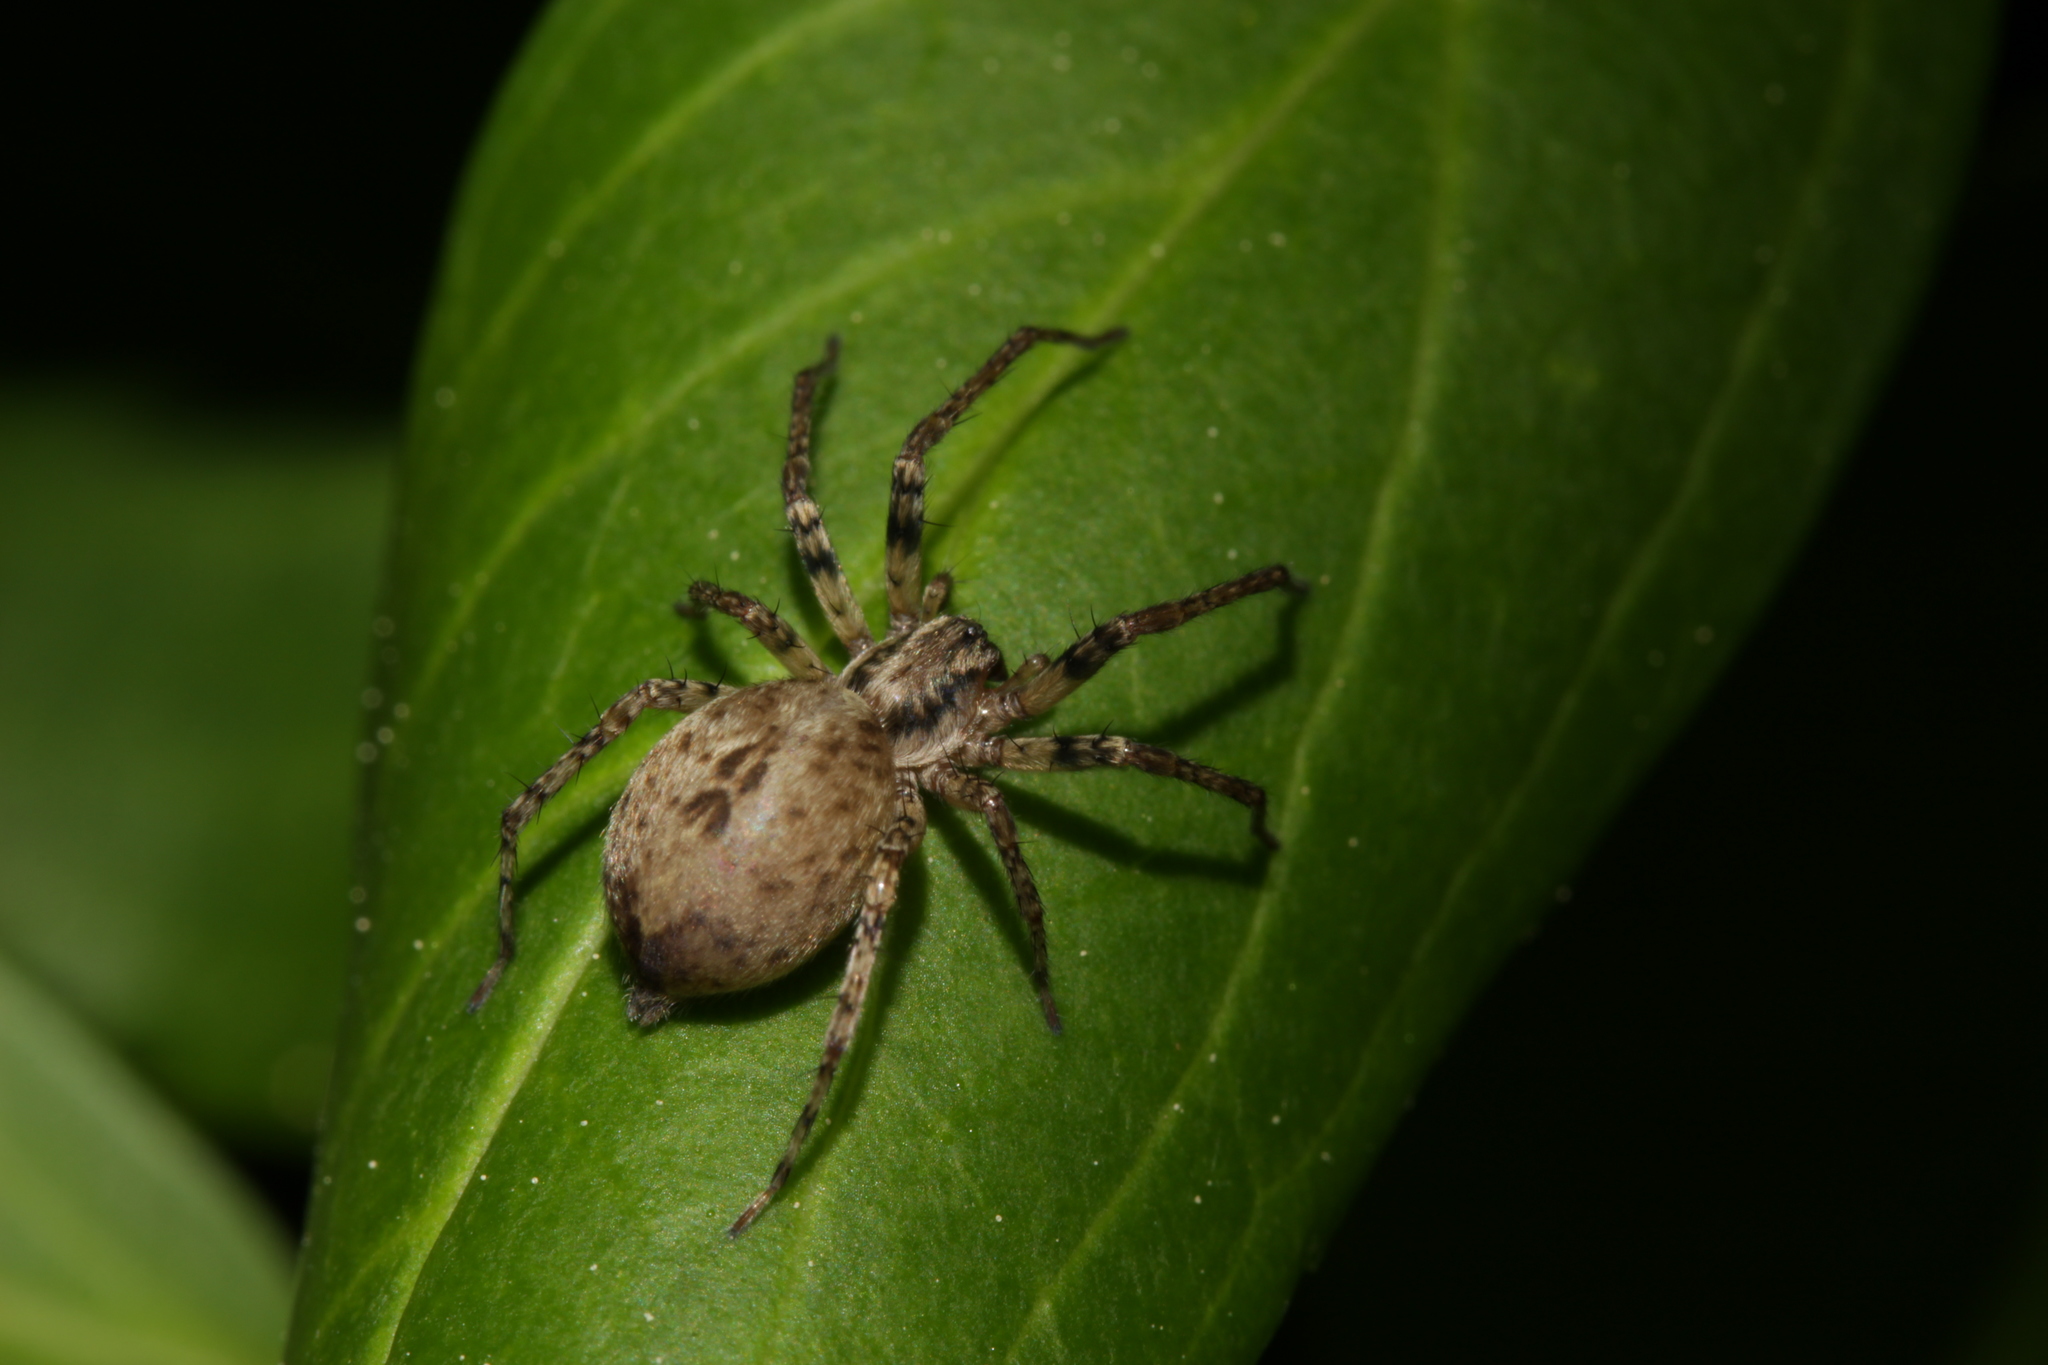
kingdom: Animalia
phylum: Arthropoda
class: Arachnida
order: Araneae
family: Anyphaenidae
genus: Anyphaena
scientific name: Anyphaena accentuata
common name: Buzzing spider
